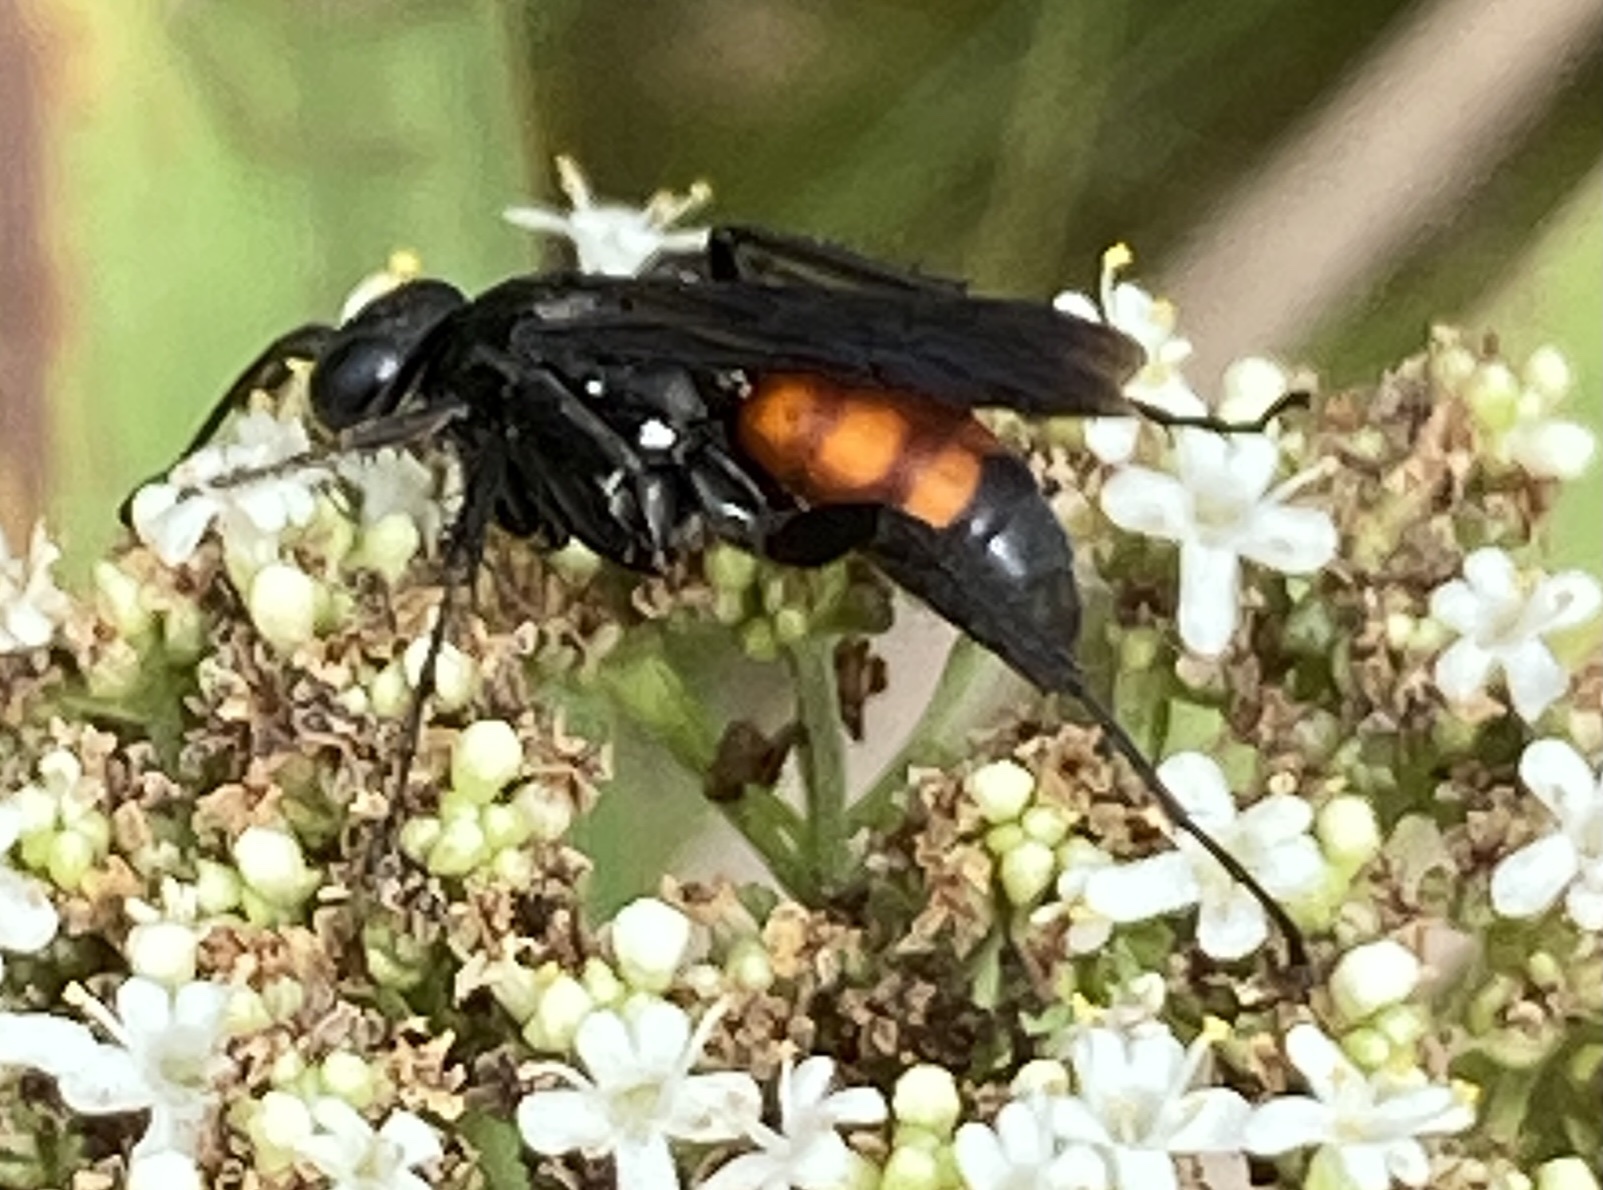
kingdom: Animalia
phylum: Arthropoda
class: Insecta
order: Hymenoptera
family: Pompilidae
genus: Anoplius
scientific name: Anoplius fuscus
